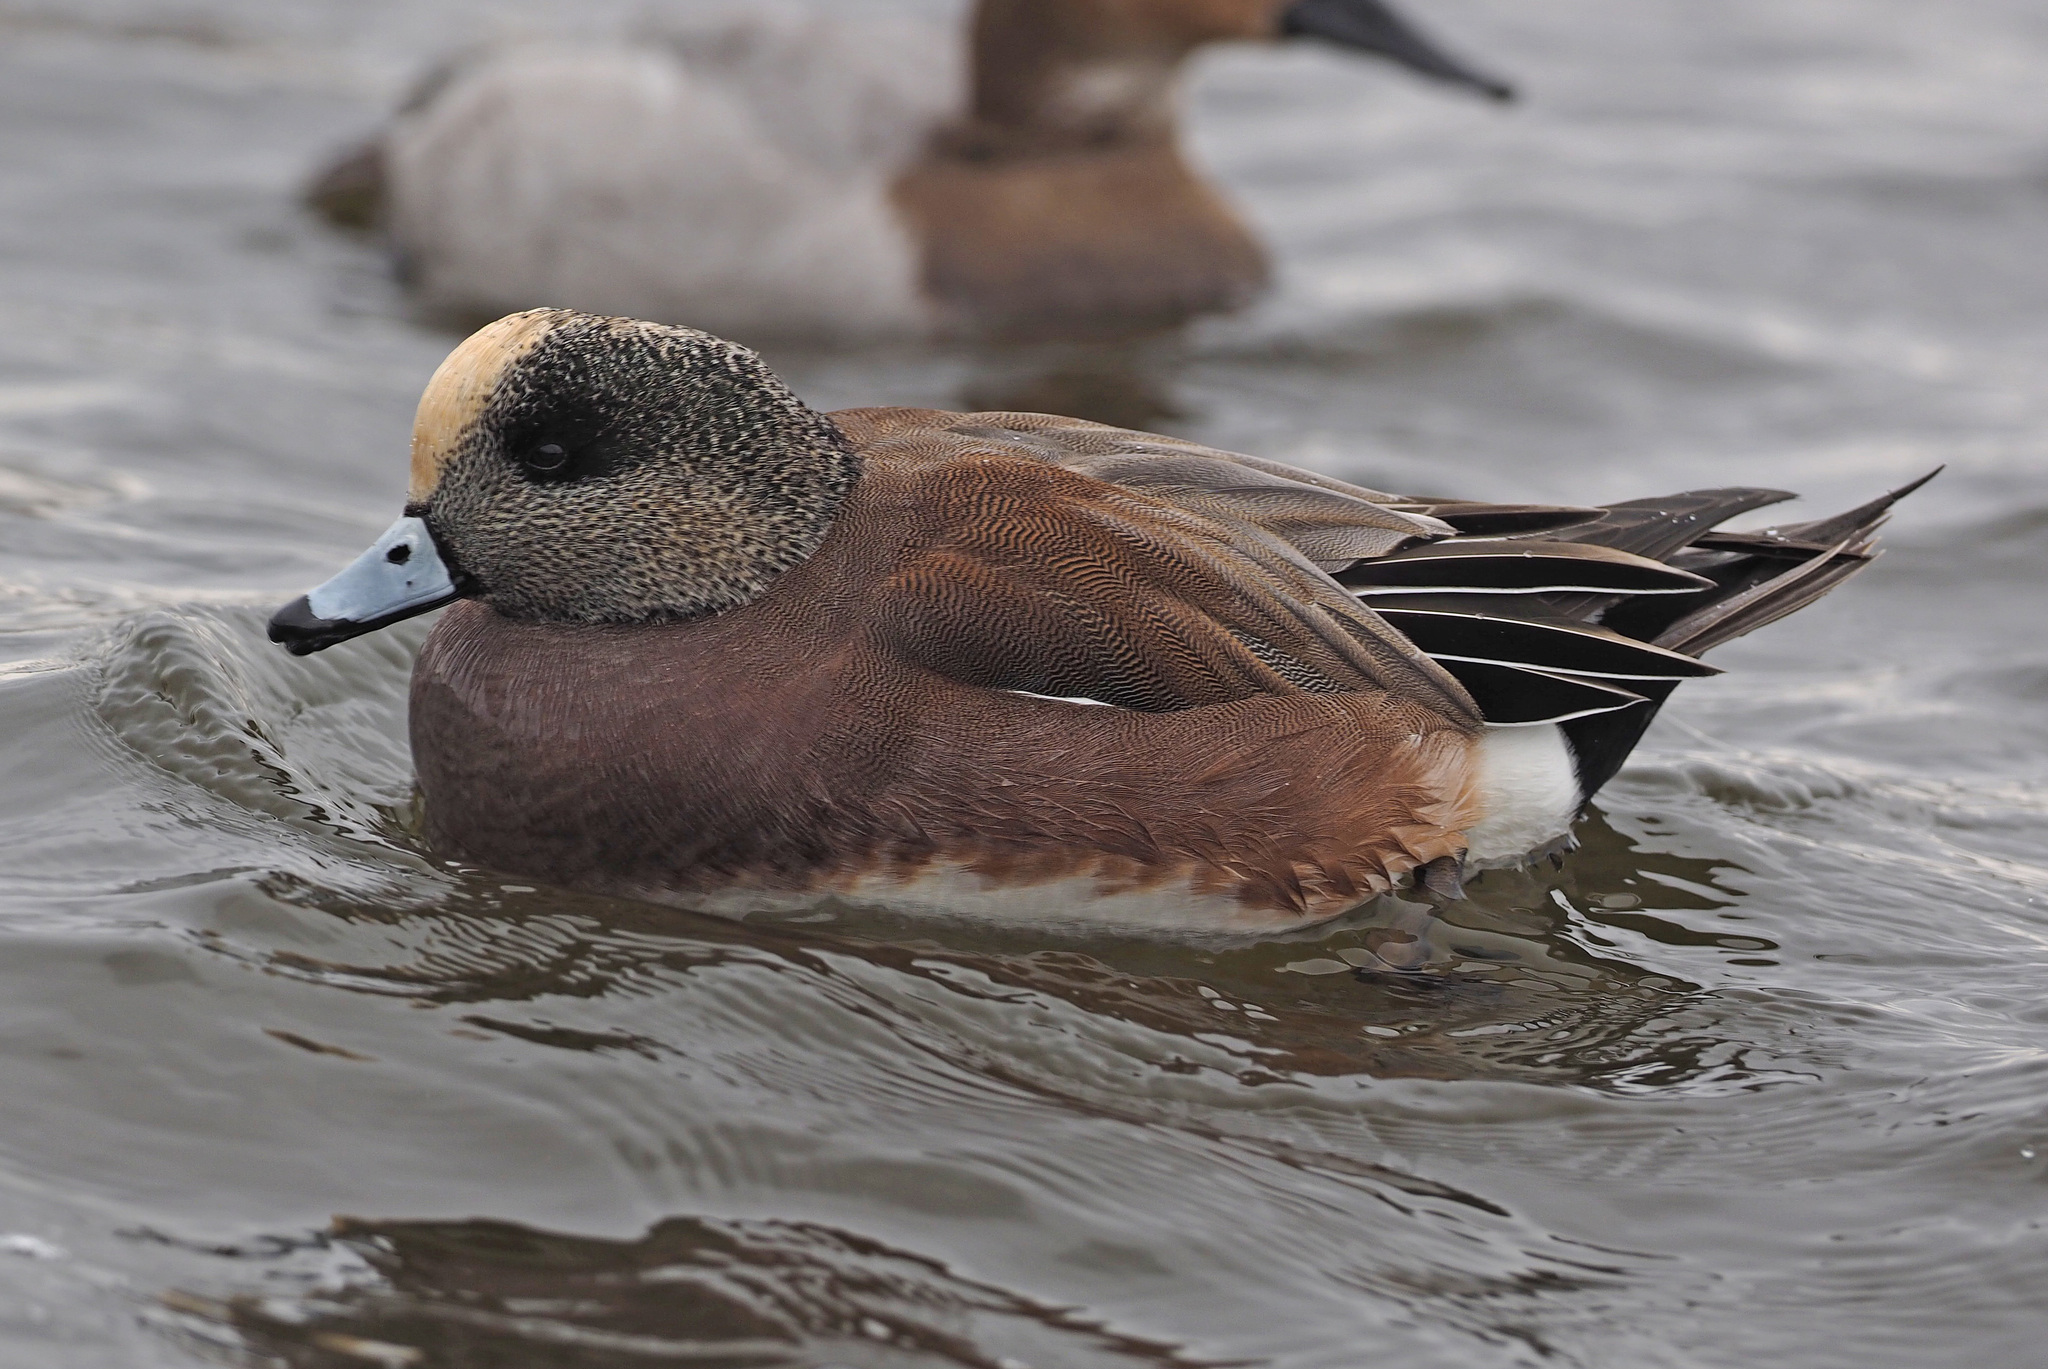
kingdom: Animalia
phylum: Chordata
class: Aves
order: Anseriformes
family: Anatidae
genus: Mareca
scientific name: Mareca americana
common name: American wigeon
